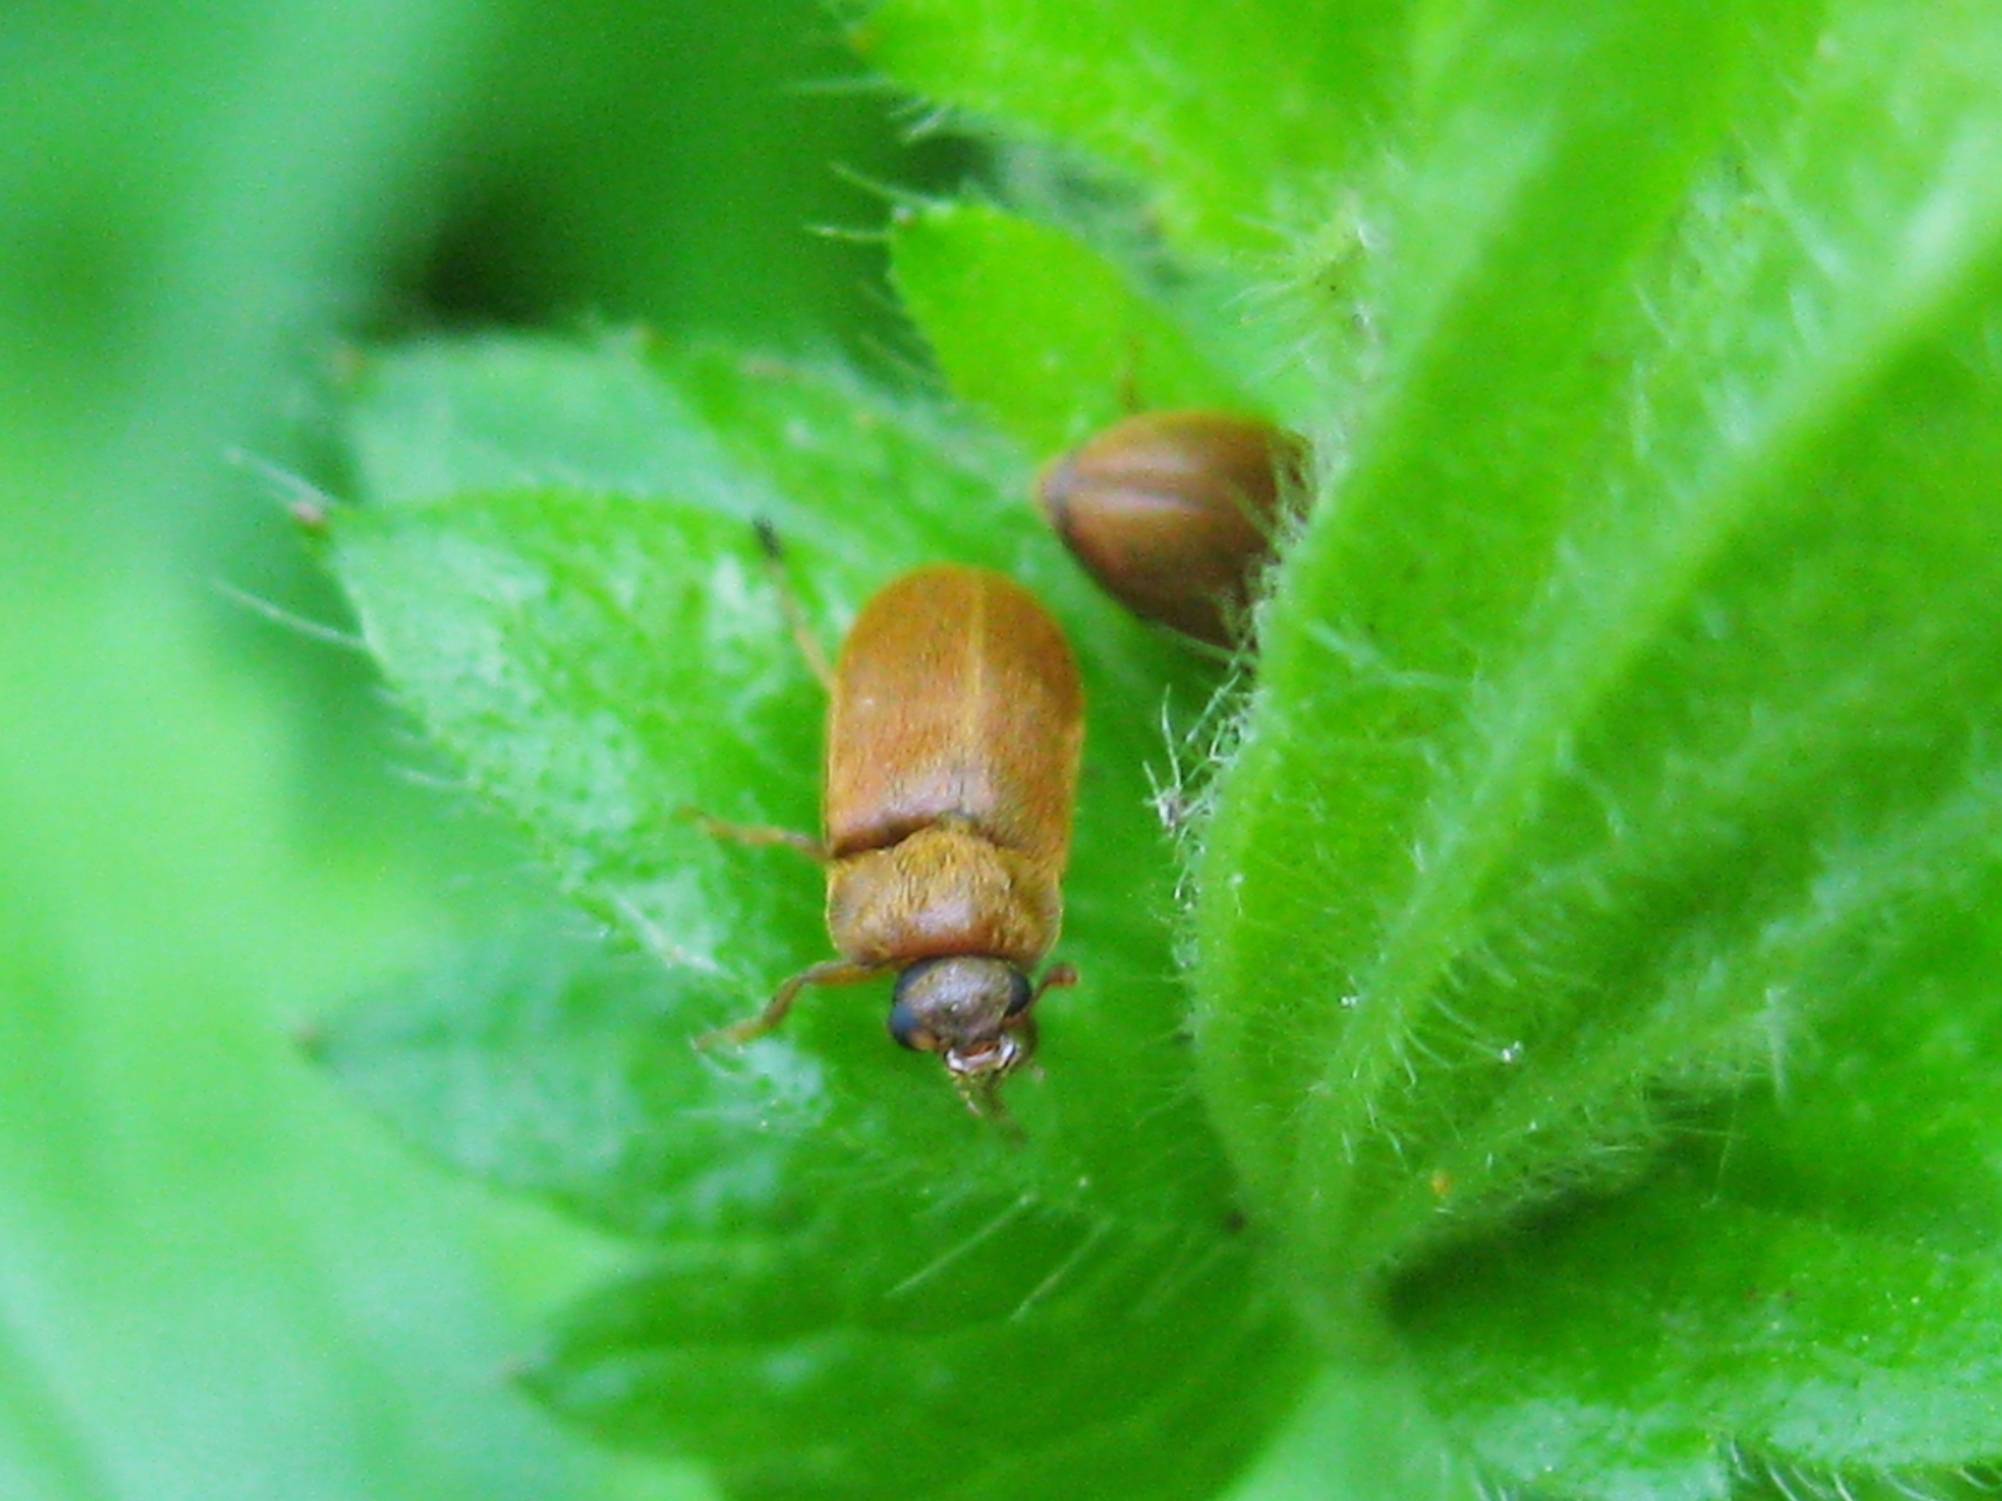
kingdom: Animalia
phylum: Arthropoda
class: Insecta
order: Coleoptera
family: Byturidae
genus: Byturus
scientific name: Byturus ochraceus
